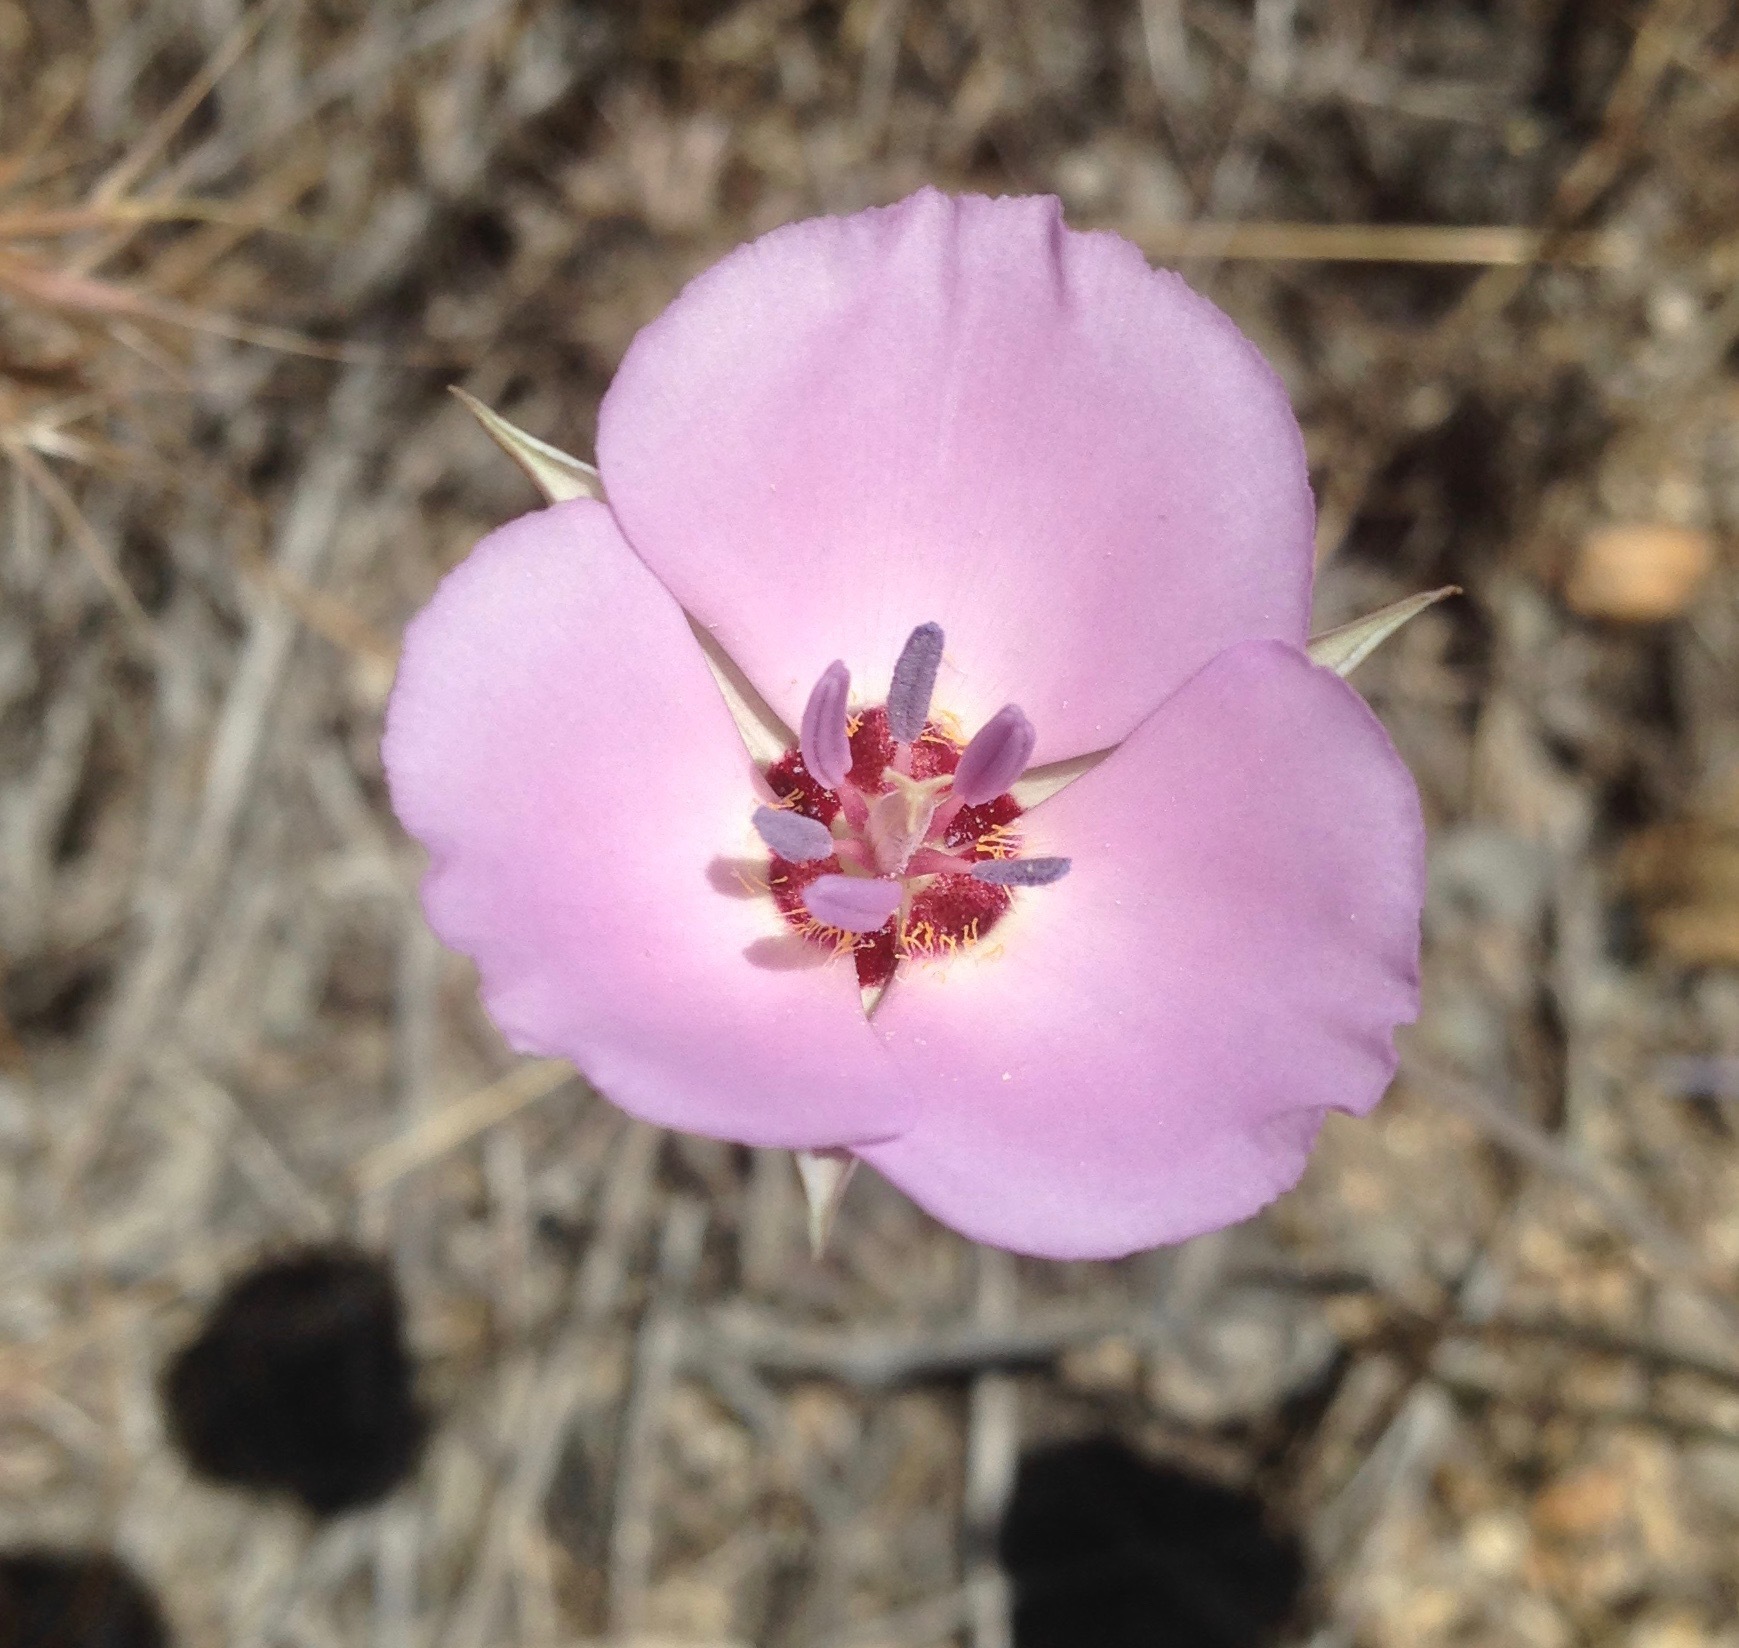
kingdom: Plantae
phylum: Tracheophyta
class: Liliopsida
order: Liliales
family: Liliaceae
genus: Calochortus
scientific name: Calochortus palmeri
